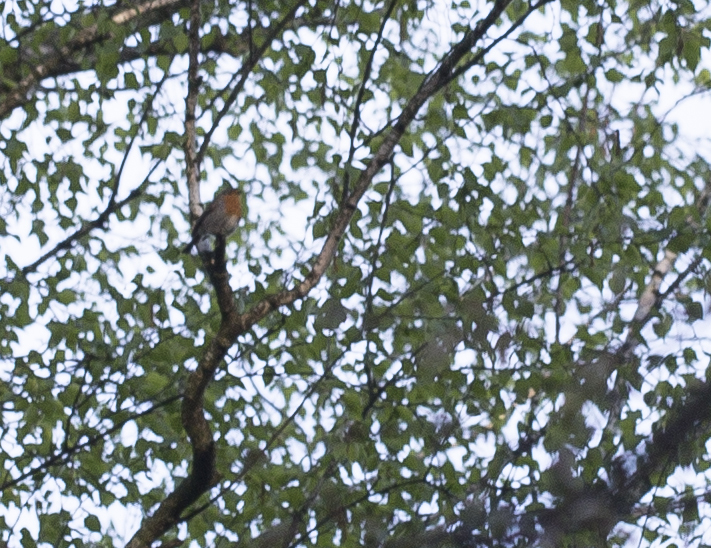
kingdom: Animalia
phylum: Chordata
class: Aves
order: Passeriformes
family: Muscicapidae
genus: Erithacus
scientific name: Erithacus rubecula
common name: European robin
